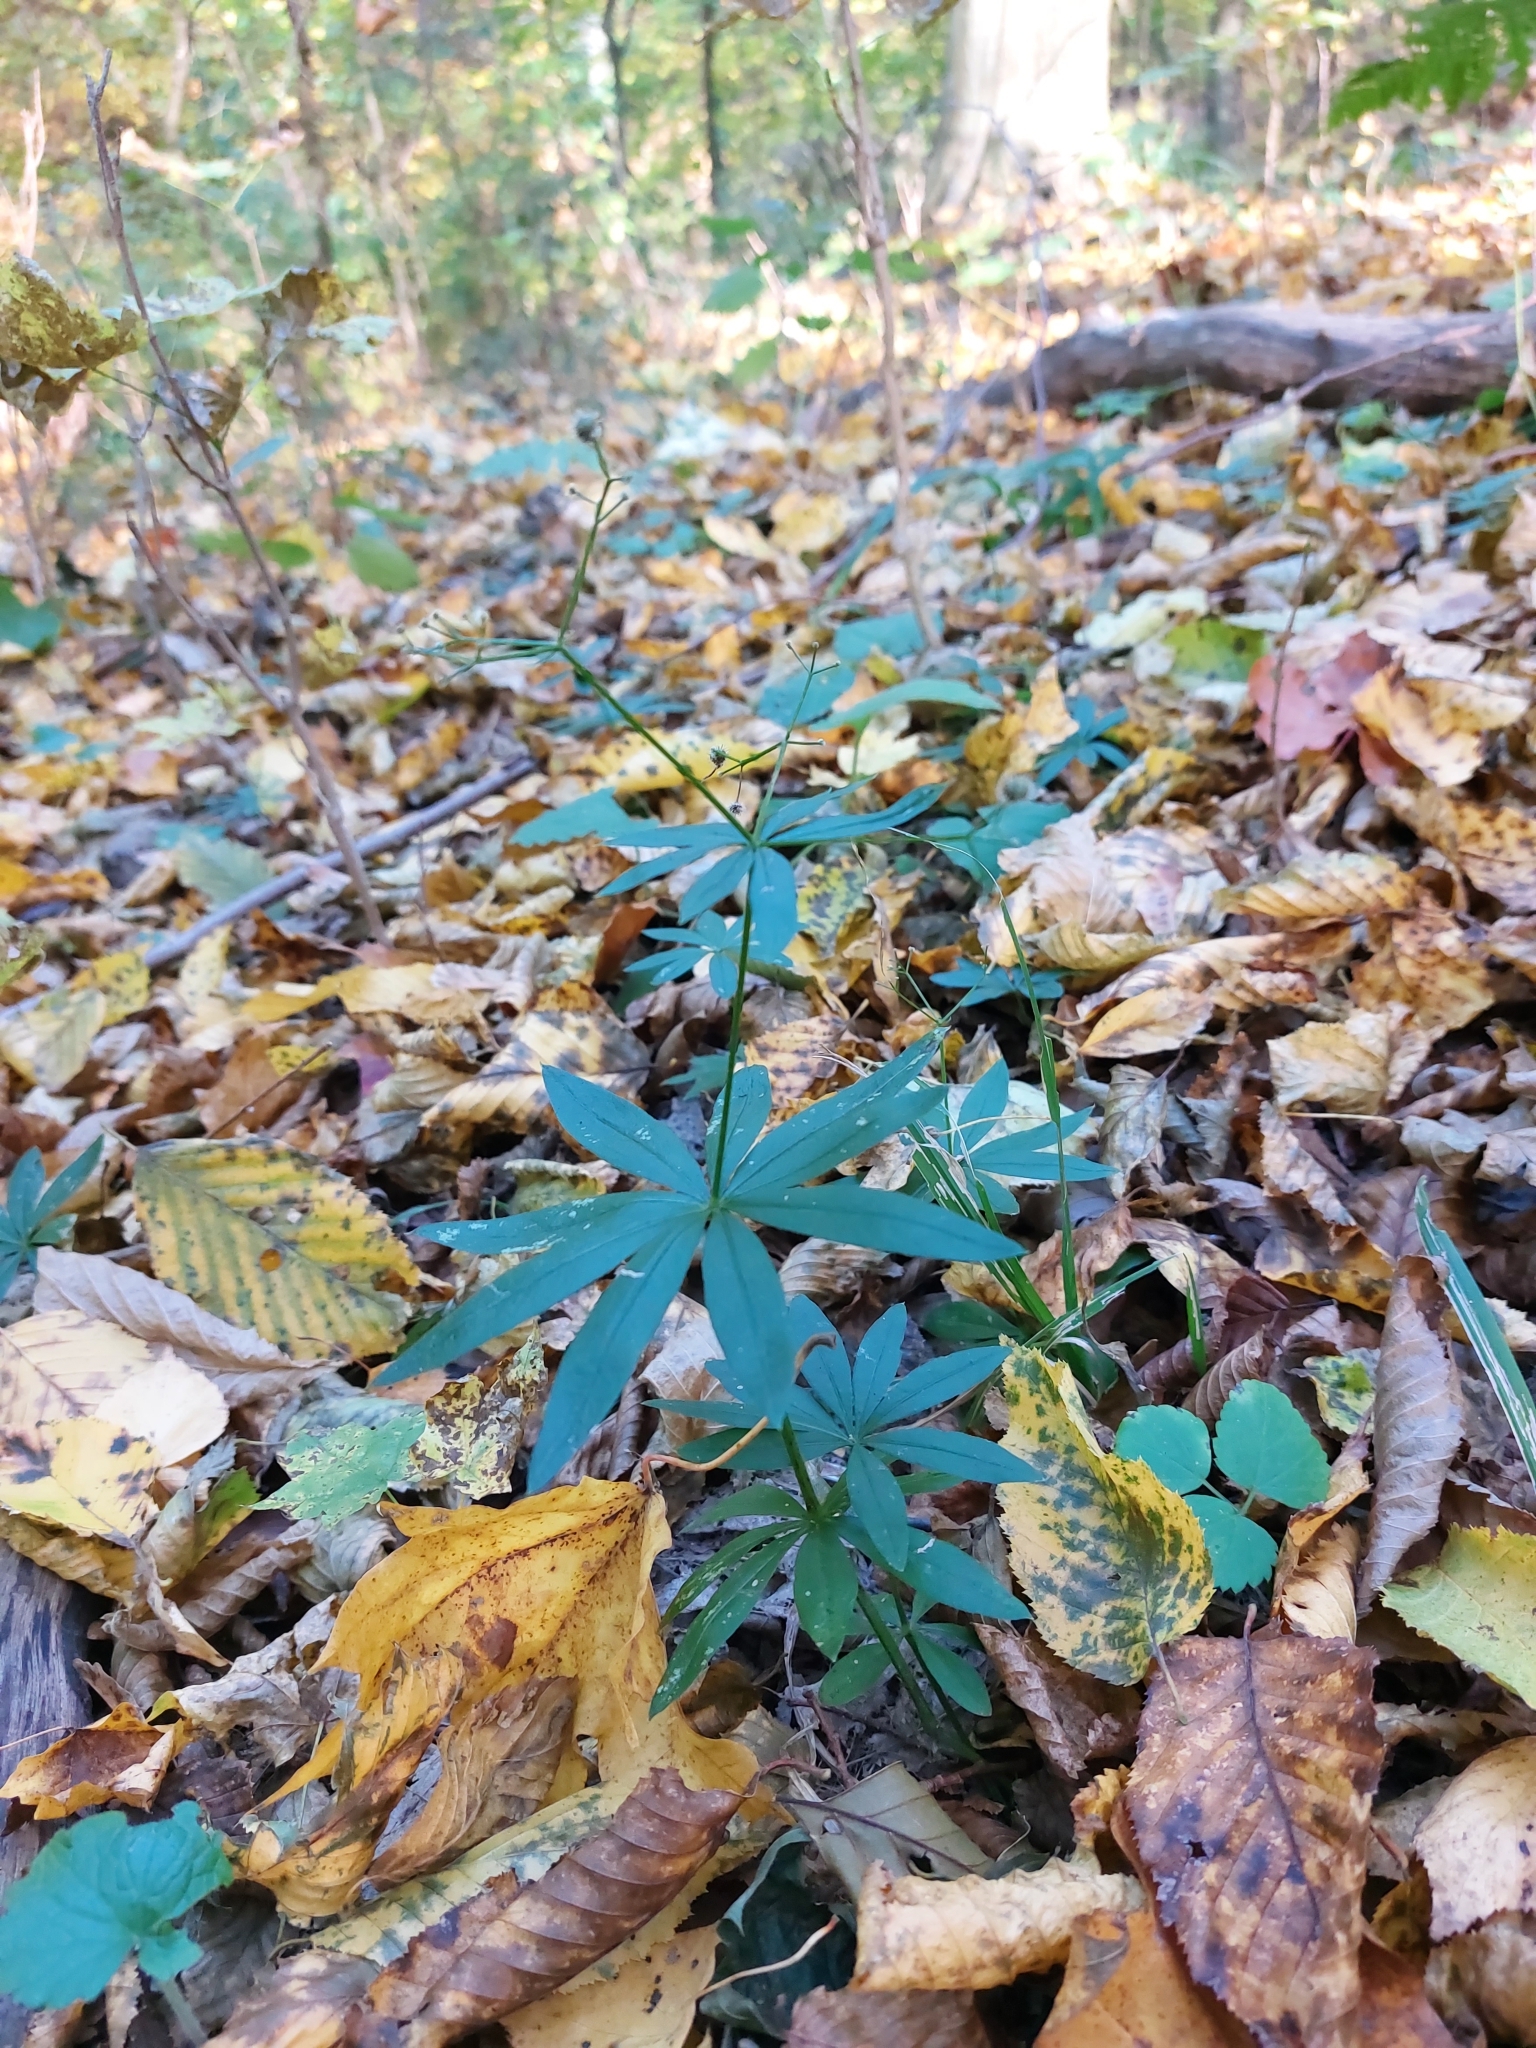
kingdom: Plantae
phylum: Tracheophyta
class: Magnoliopsida
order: Gentianales
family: Rubiaceae
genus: Galium
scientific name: Galium odoratum
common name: Sweet woodruff
